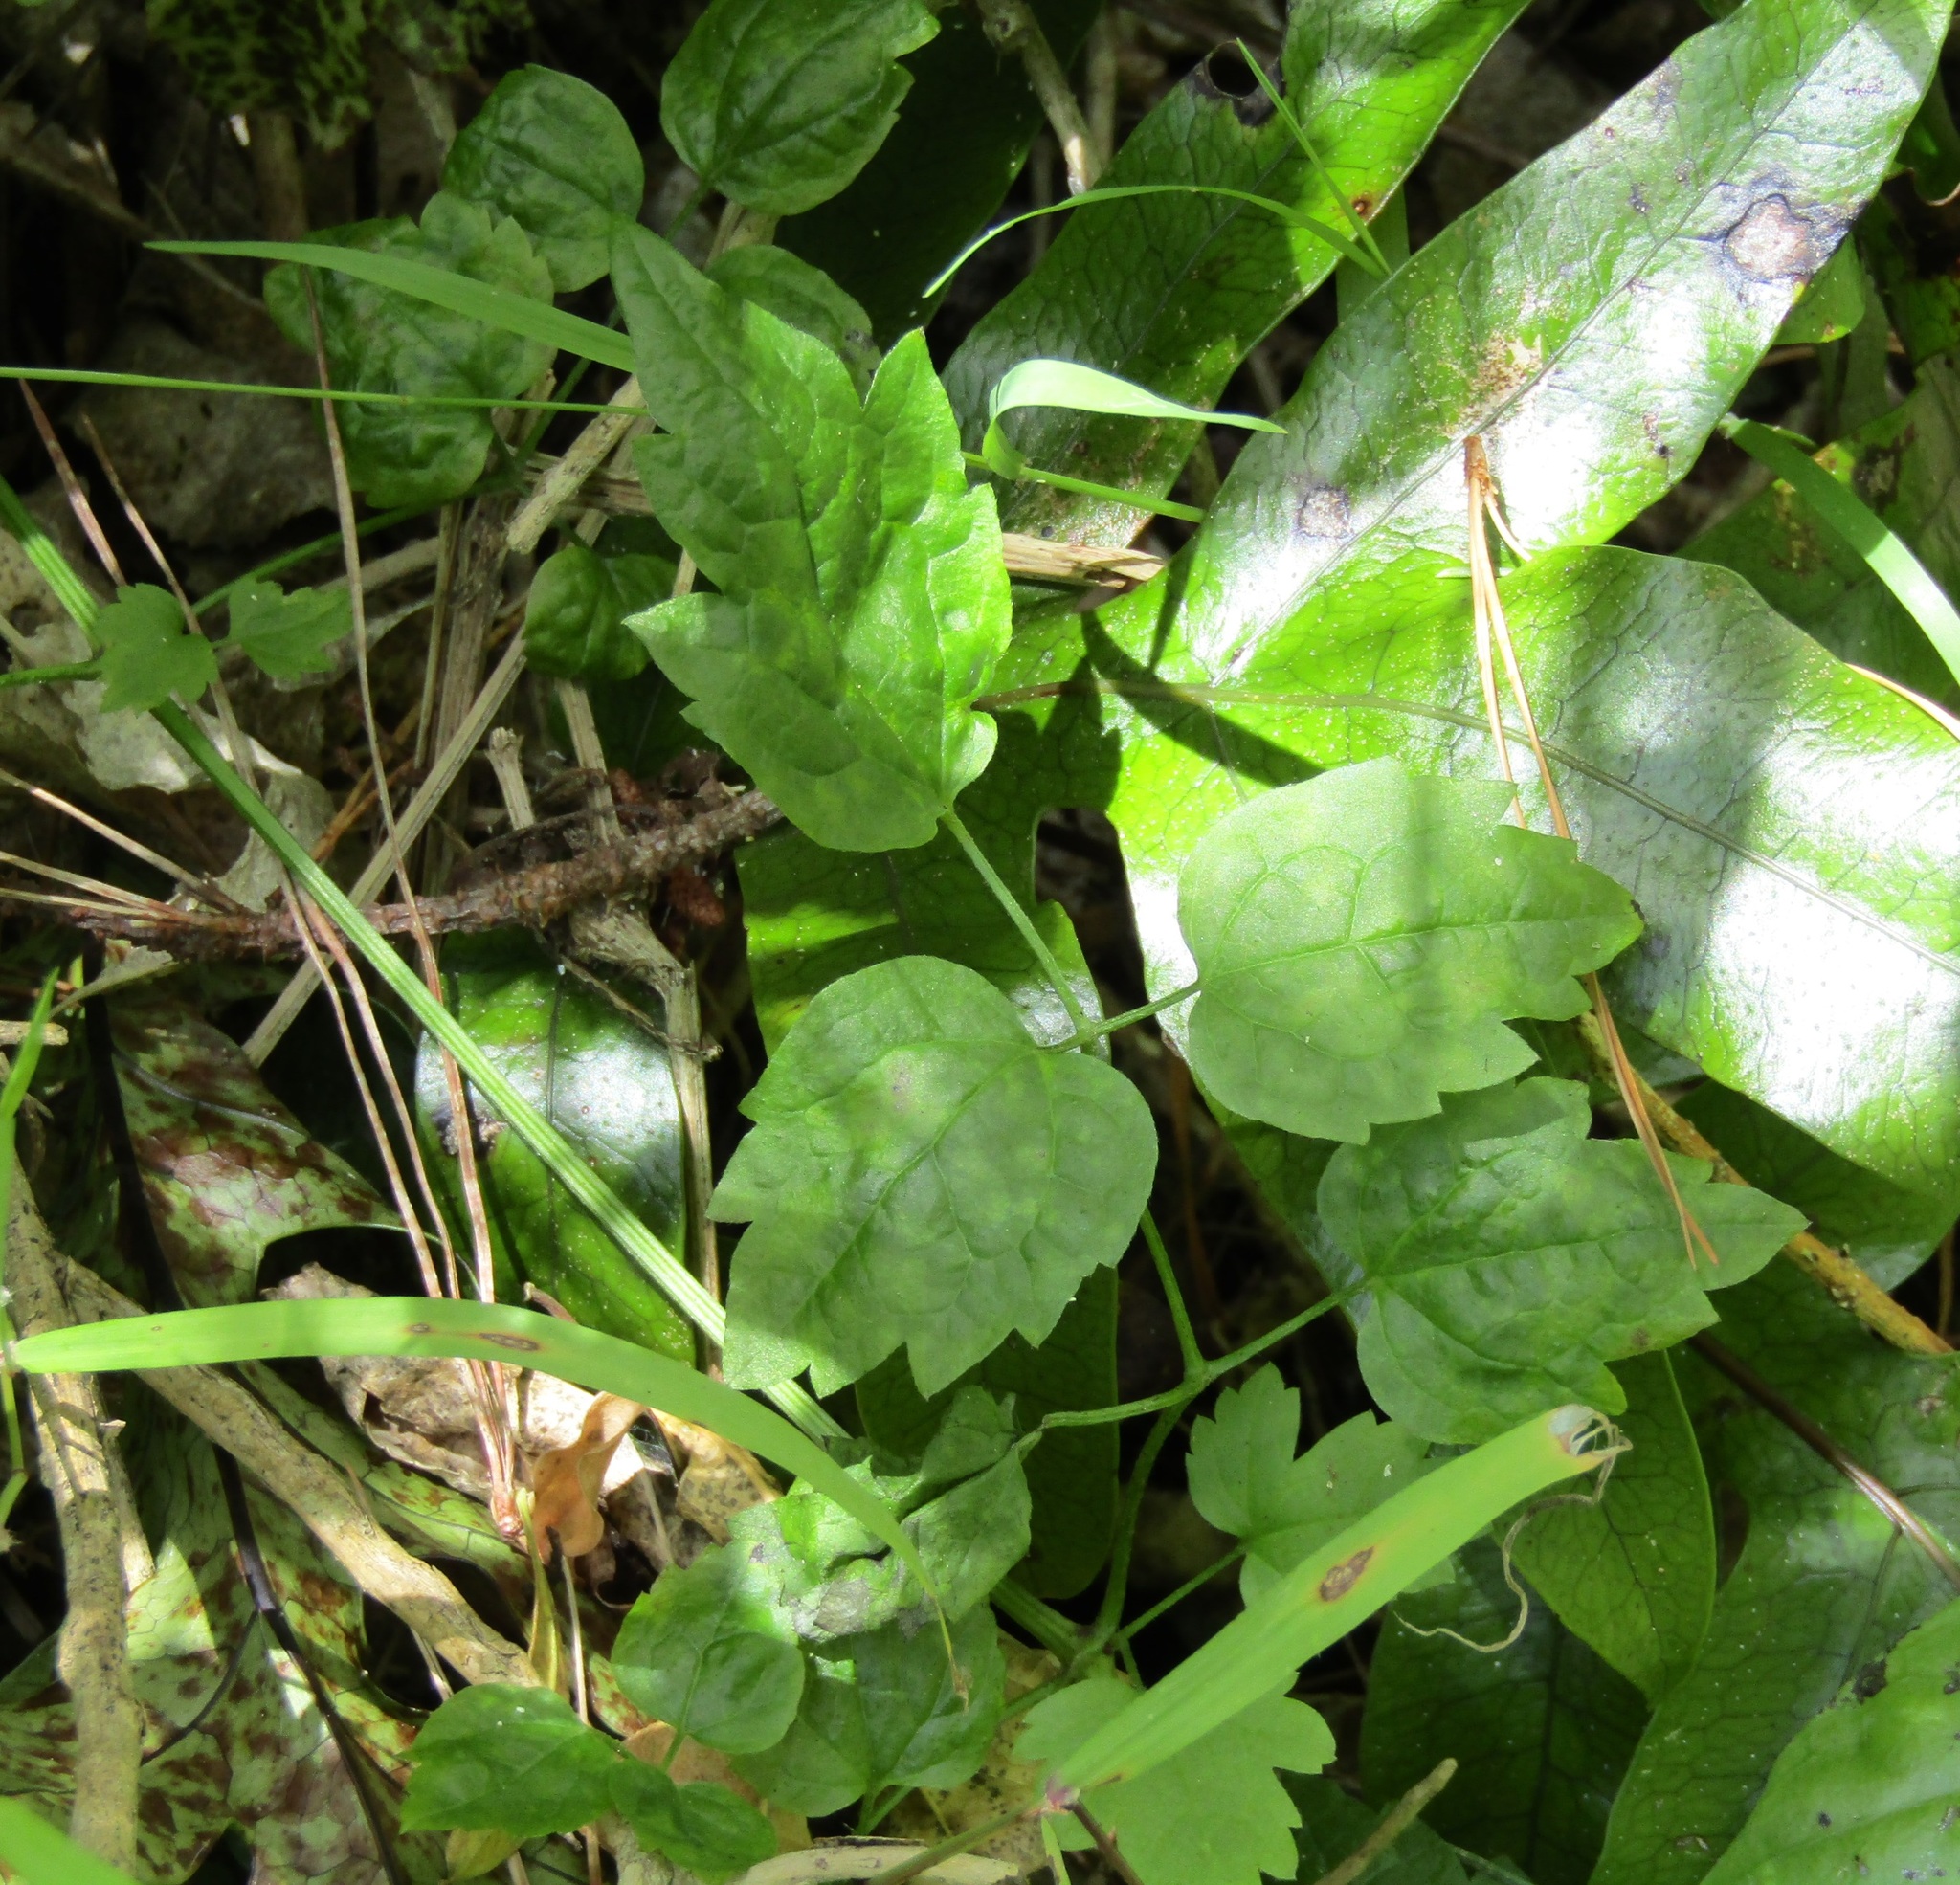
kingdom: Plantae
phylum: Tracheophyta
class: Magnoliopsida
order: Ranunculales
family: Ranunculaceae
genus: Clematis
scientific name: Clematis vitalba
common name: Evergreen clematis
